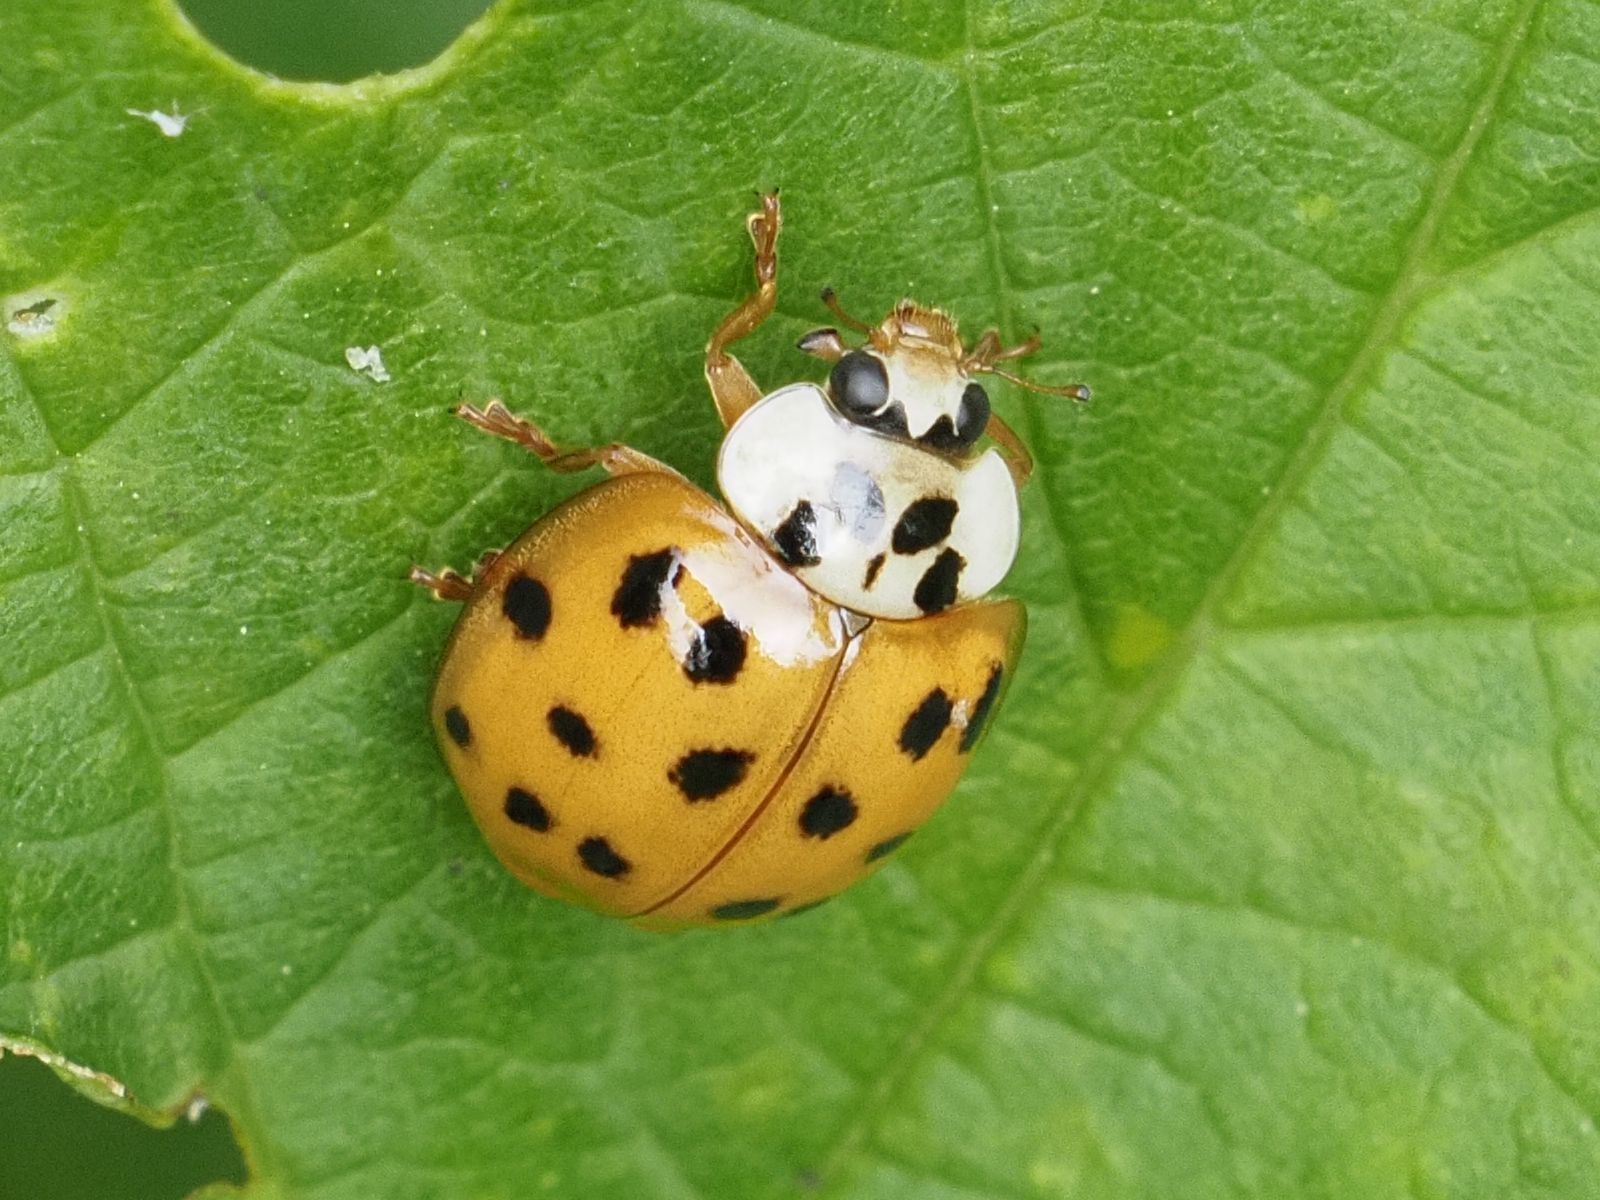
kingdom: Animalia
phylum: Arthropoda
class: Insecta
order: Coleoptera
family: Coccinellidae
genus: Harmonia
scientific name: Harmonia axyridis
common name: Harlequin ladybird
